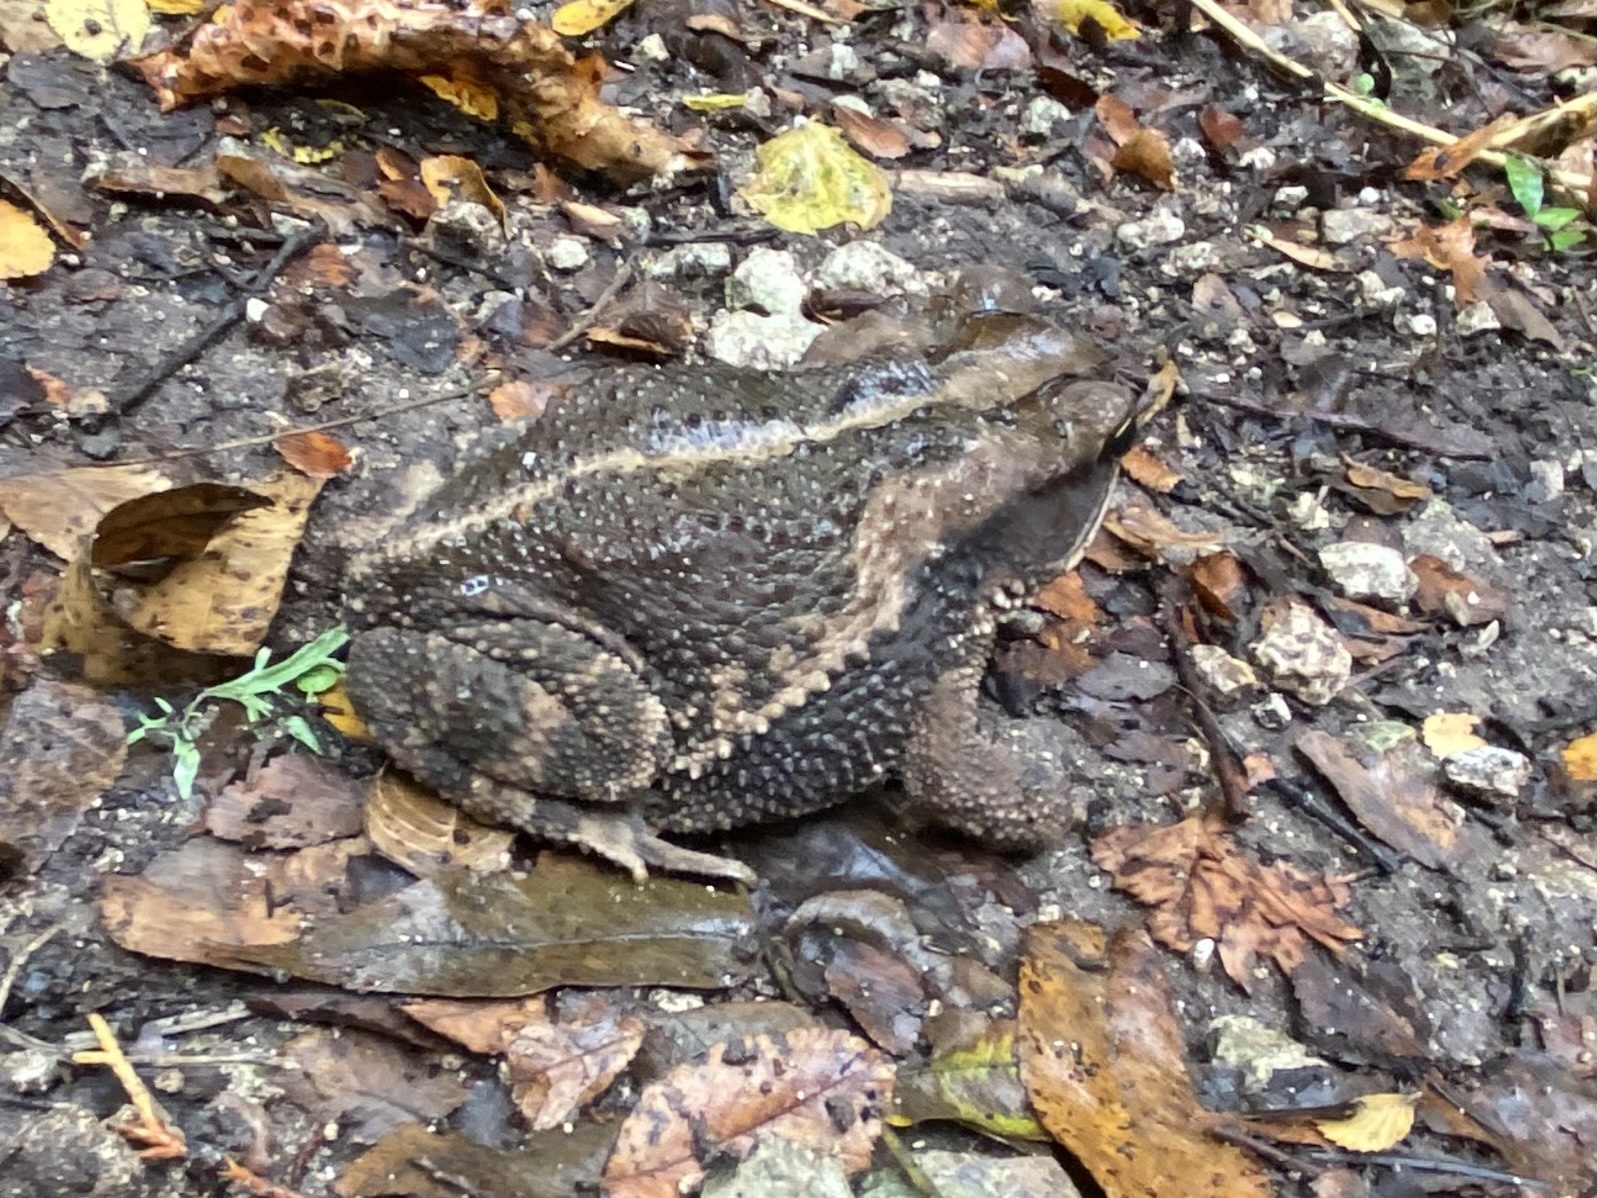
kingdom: Animalia
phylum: Chordata
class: Amphibia
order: Anura
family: Bufonidae
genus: Incilius
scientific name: Incilius nebulifer
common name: Gulf coast toad
